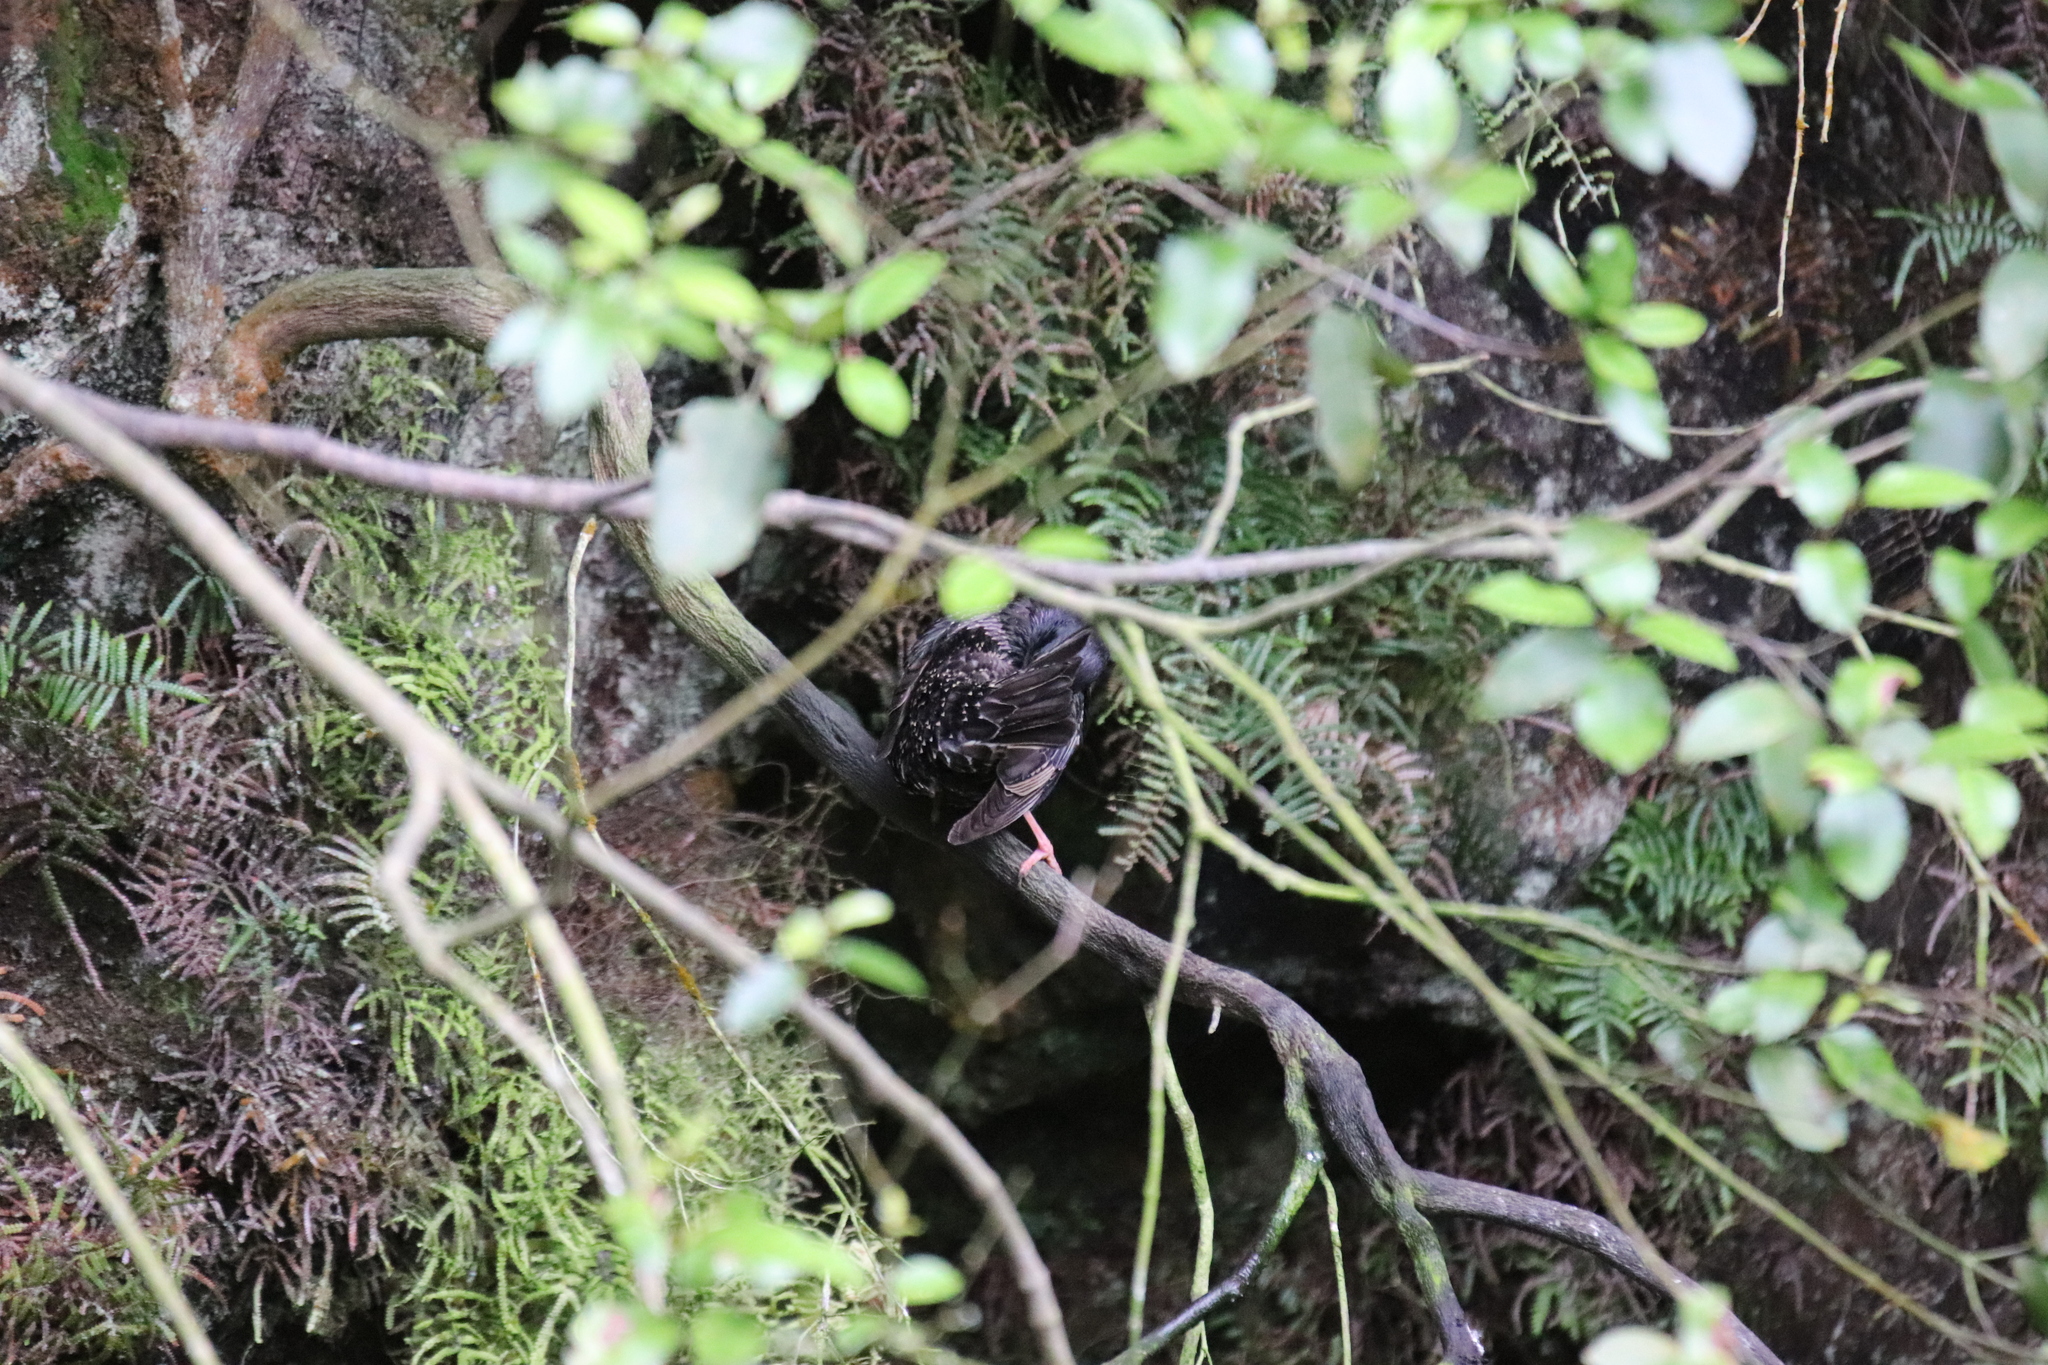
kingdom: Animalia
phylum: Chordata
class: Aves
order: Passeriformes
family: Sturnidae
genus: Sturnus
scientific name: Sturnus vulgaris
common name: Common starling
